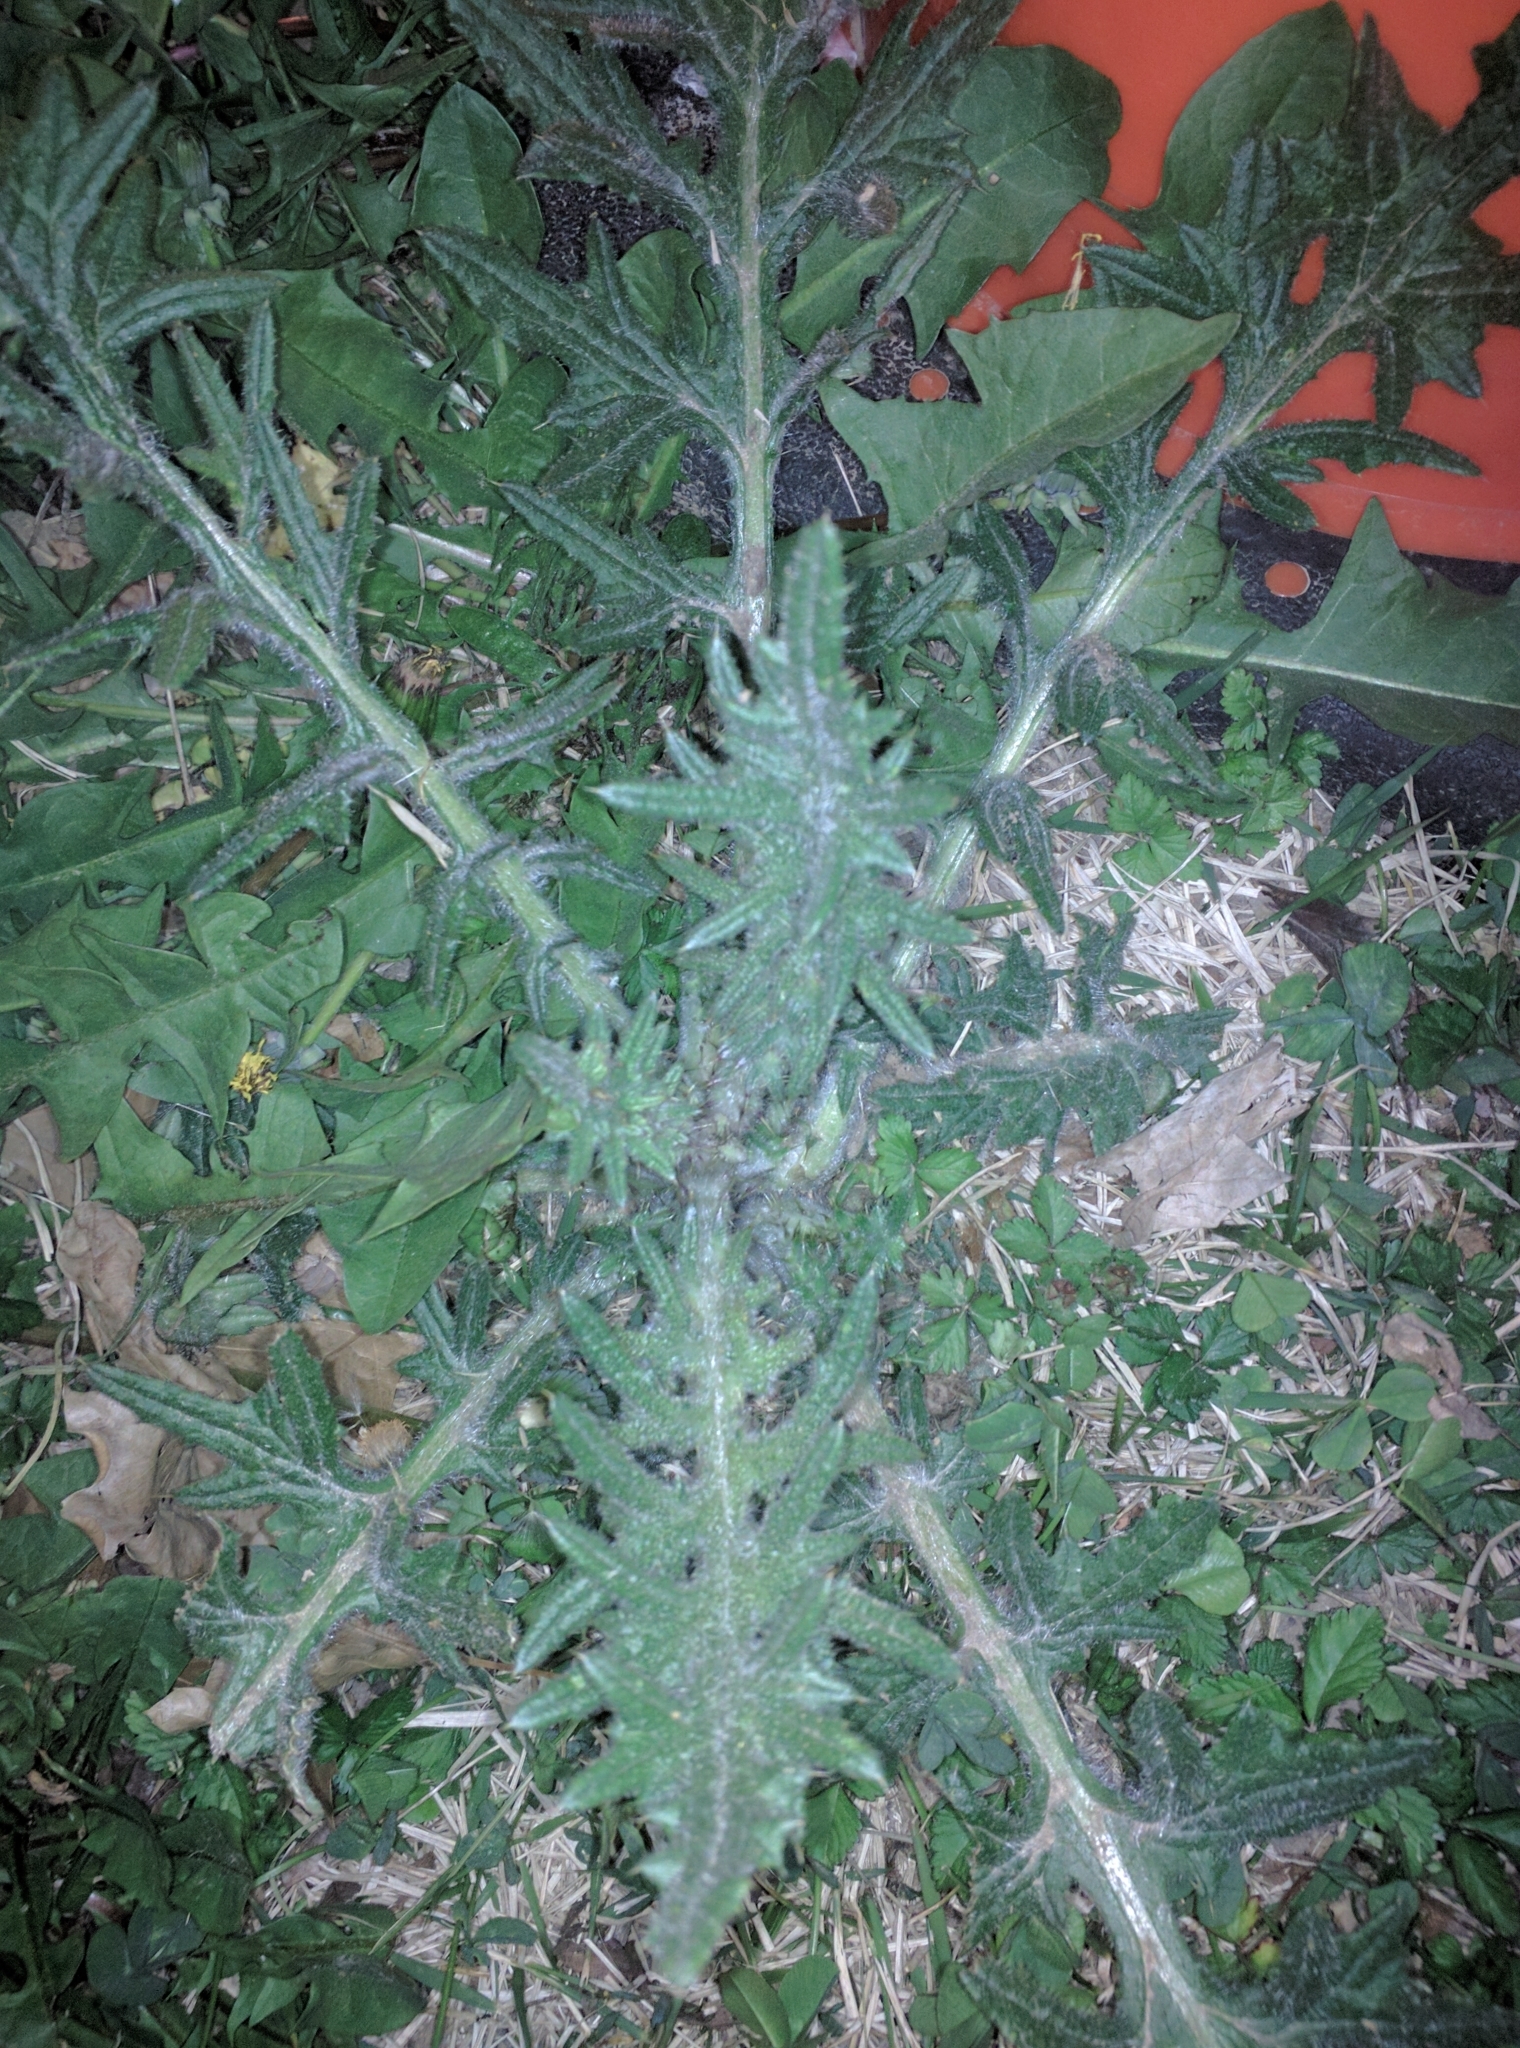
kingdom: Plantae
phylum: Tracheophyta
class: Magnoliopsida
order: Asterales
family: Asteraceae
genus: Cirsium
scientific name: Cirsium vulgare
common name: Bull thistle
